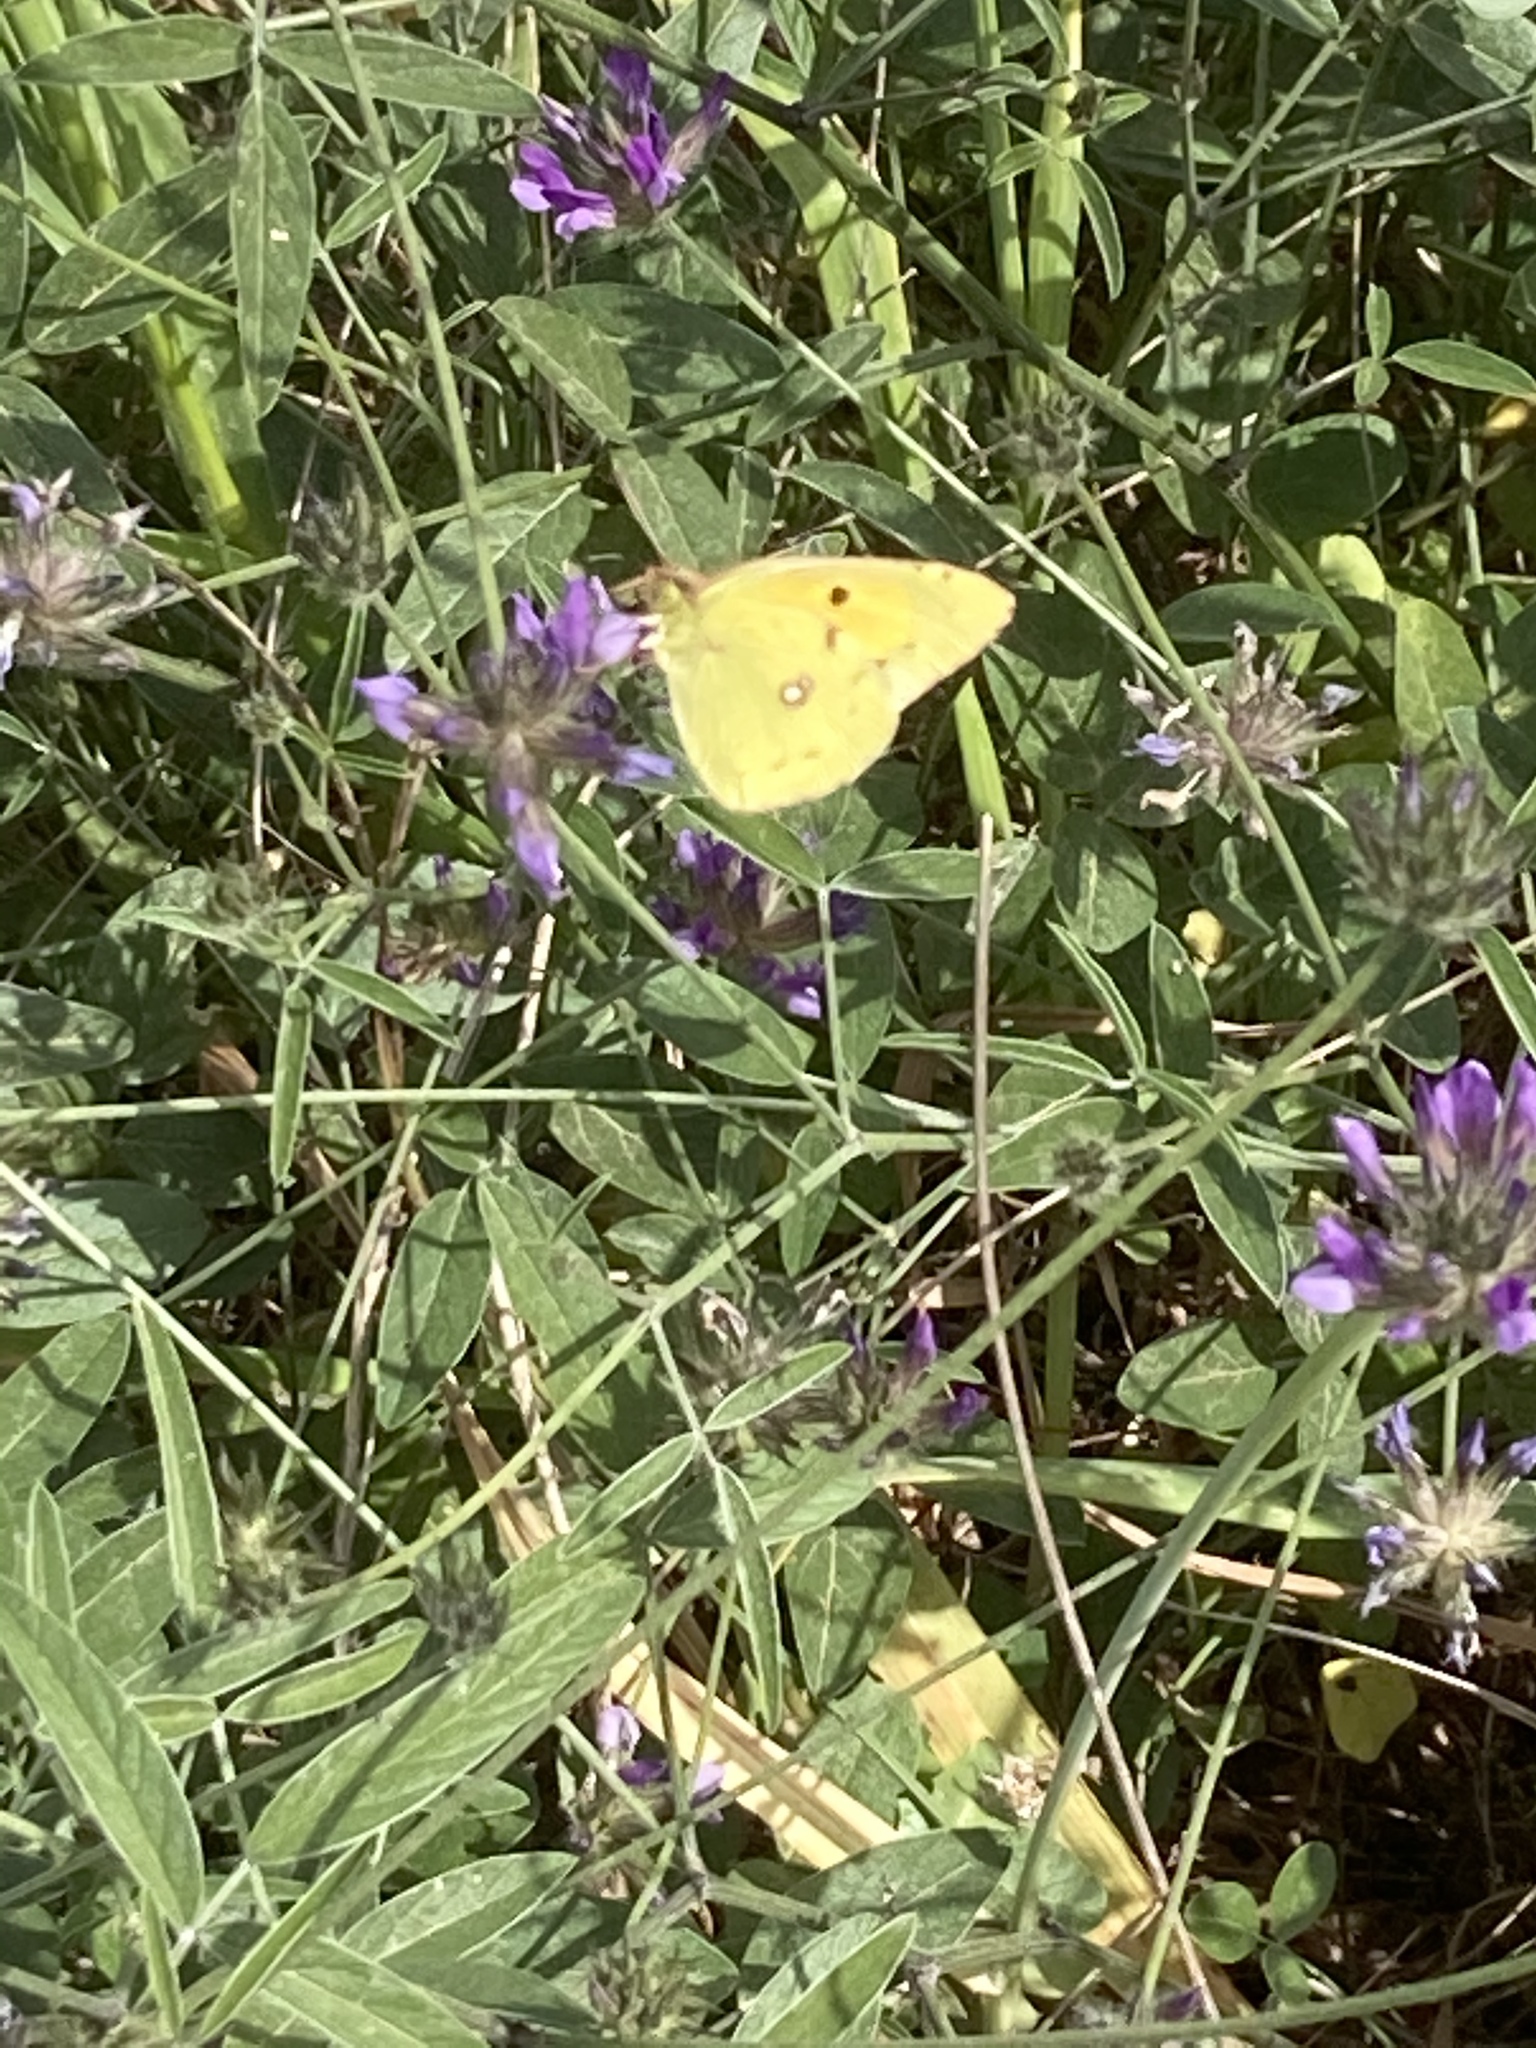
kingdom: Animalia
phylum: Arthropoda
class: Insecta
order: Lepidoptera
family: Pieridae
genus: Colias
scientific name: Colias croceus
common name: Clouded yellow
